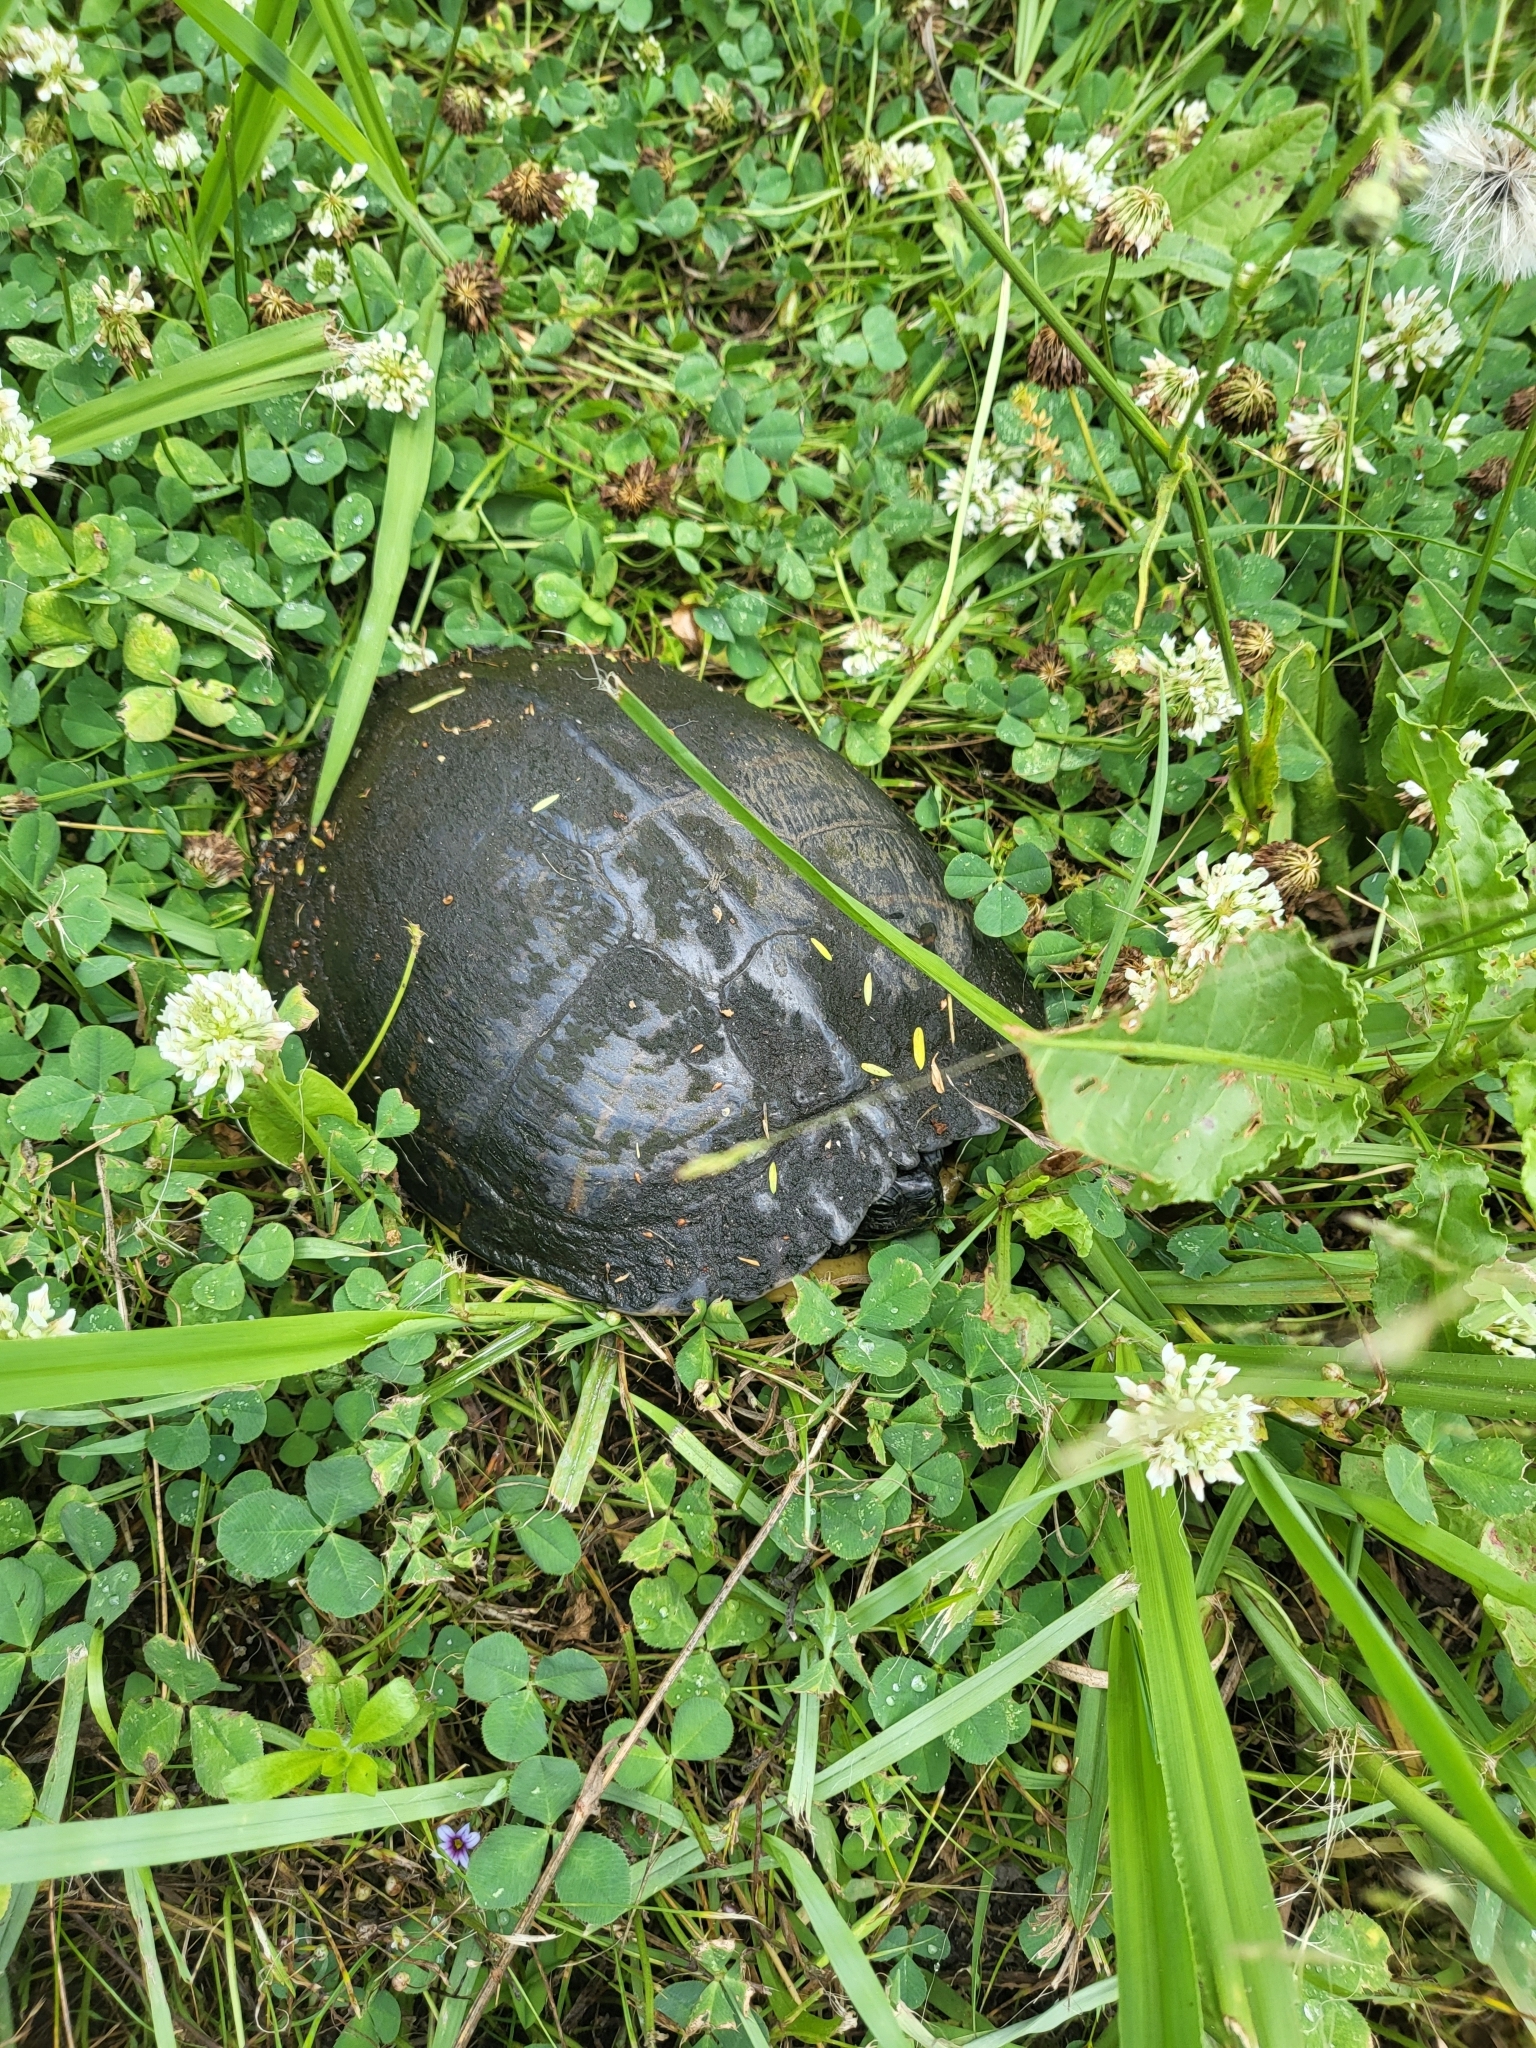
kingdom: Animalia
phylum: Chordata
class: Testudines
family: Emydidae
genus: Trachemys
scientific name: Trachemys scripta
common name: Slider
